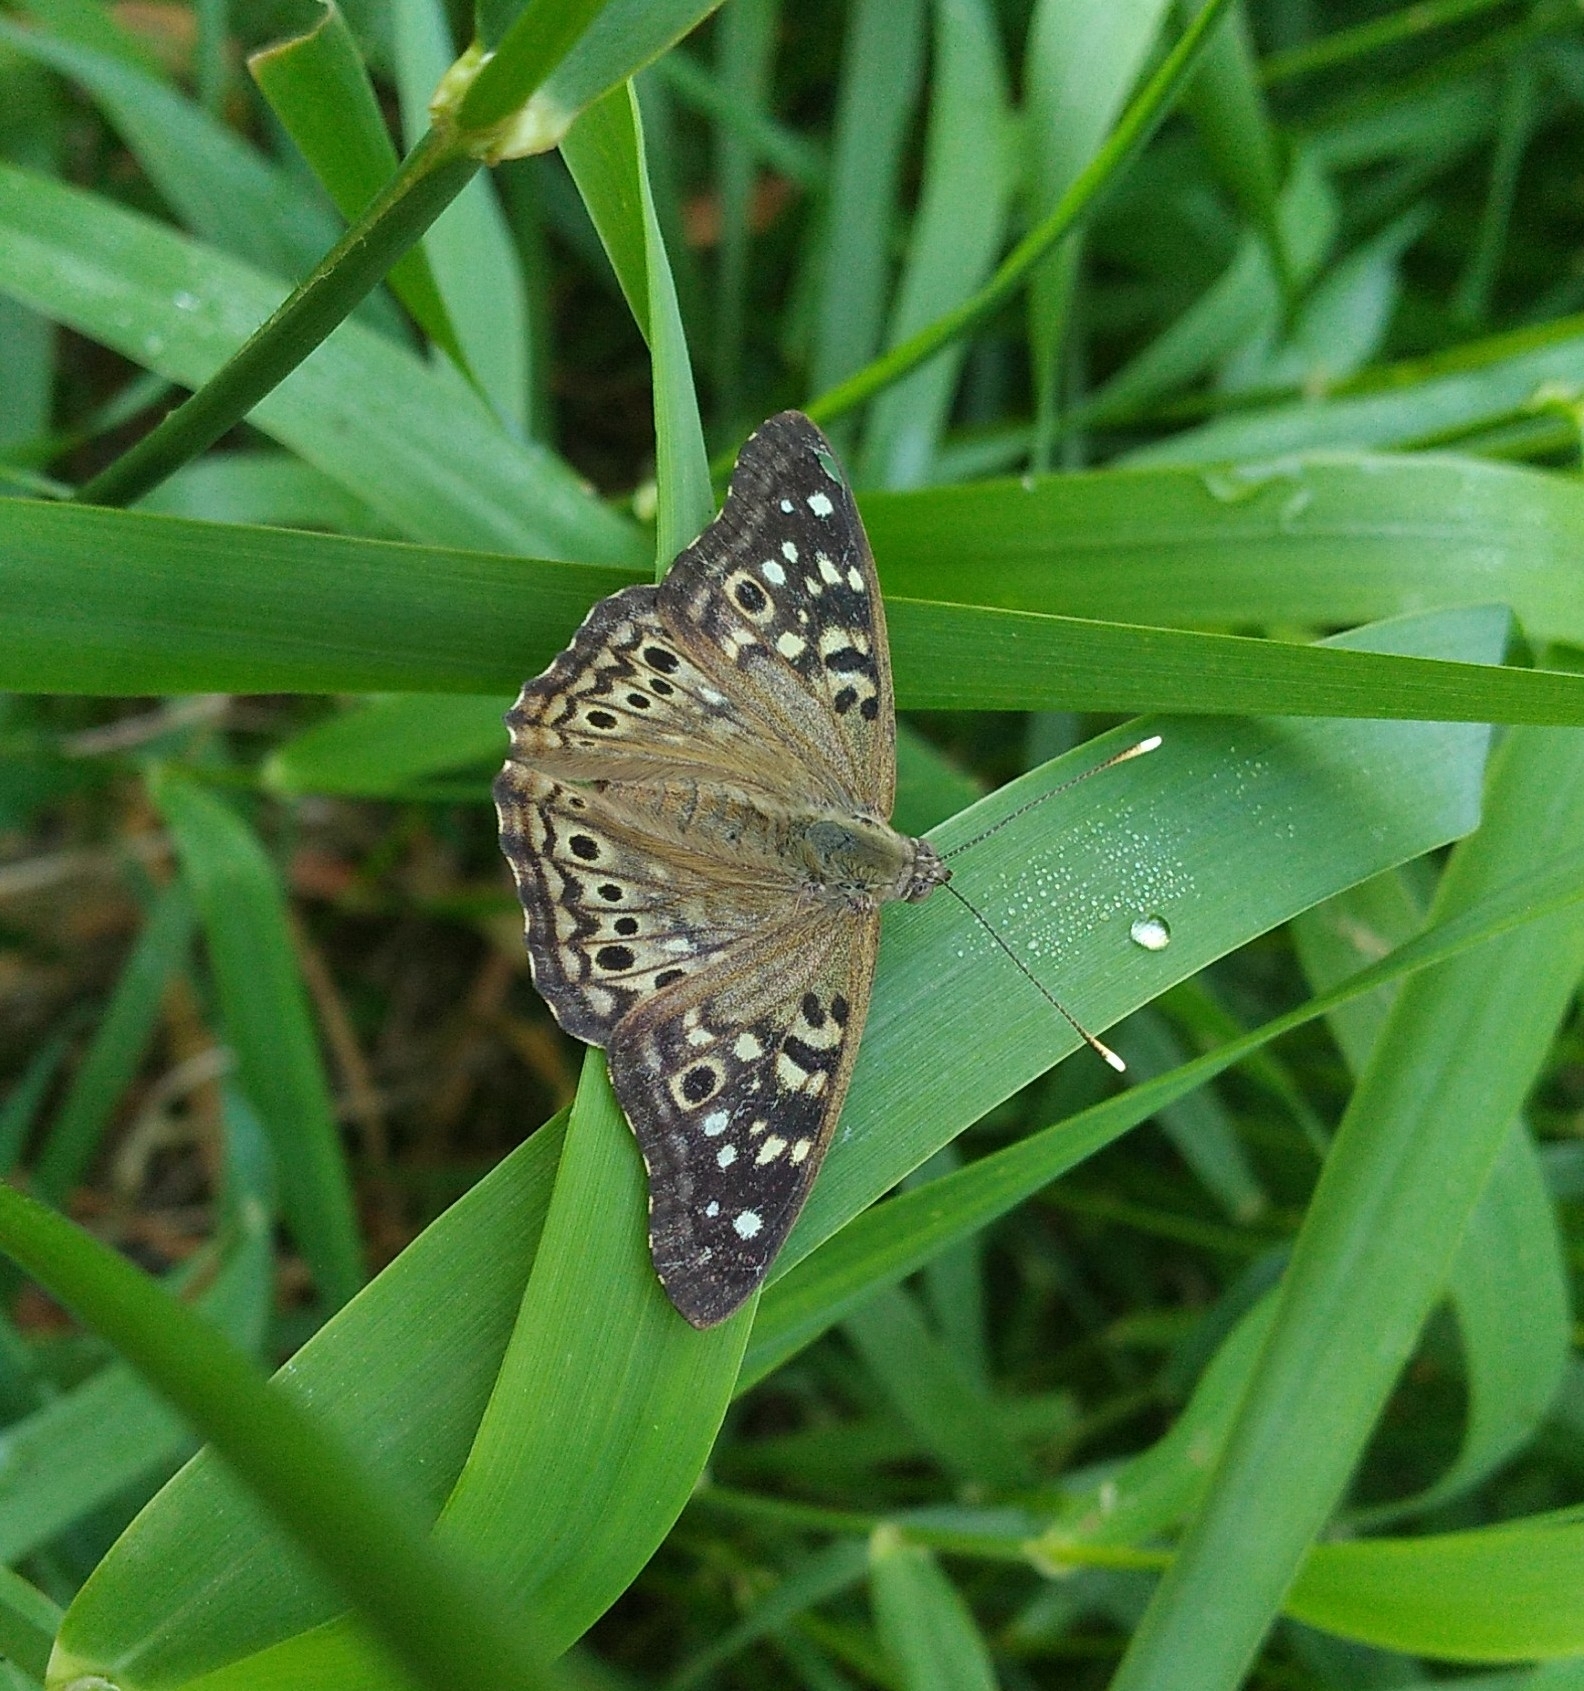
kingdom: Animalia
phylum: Arthropoda
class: Insecta
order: Lepidoptera
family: Nymphalidae
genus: Asterocampa
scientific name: Asterocampa celtis
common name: Hackberry emperor
